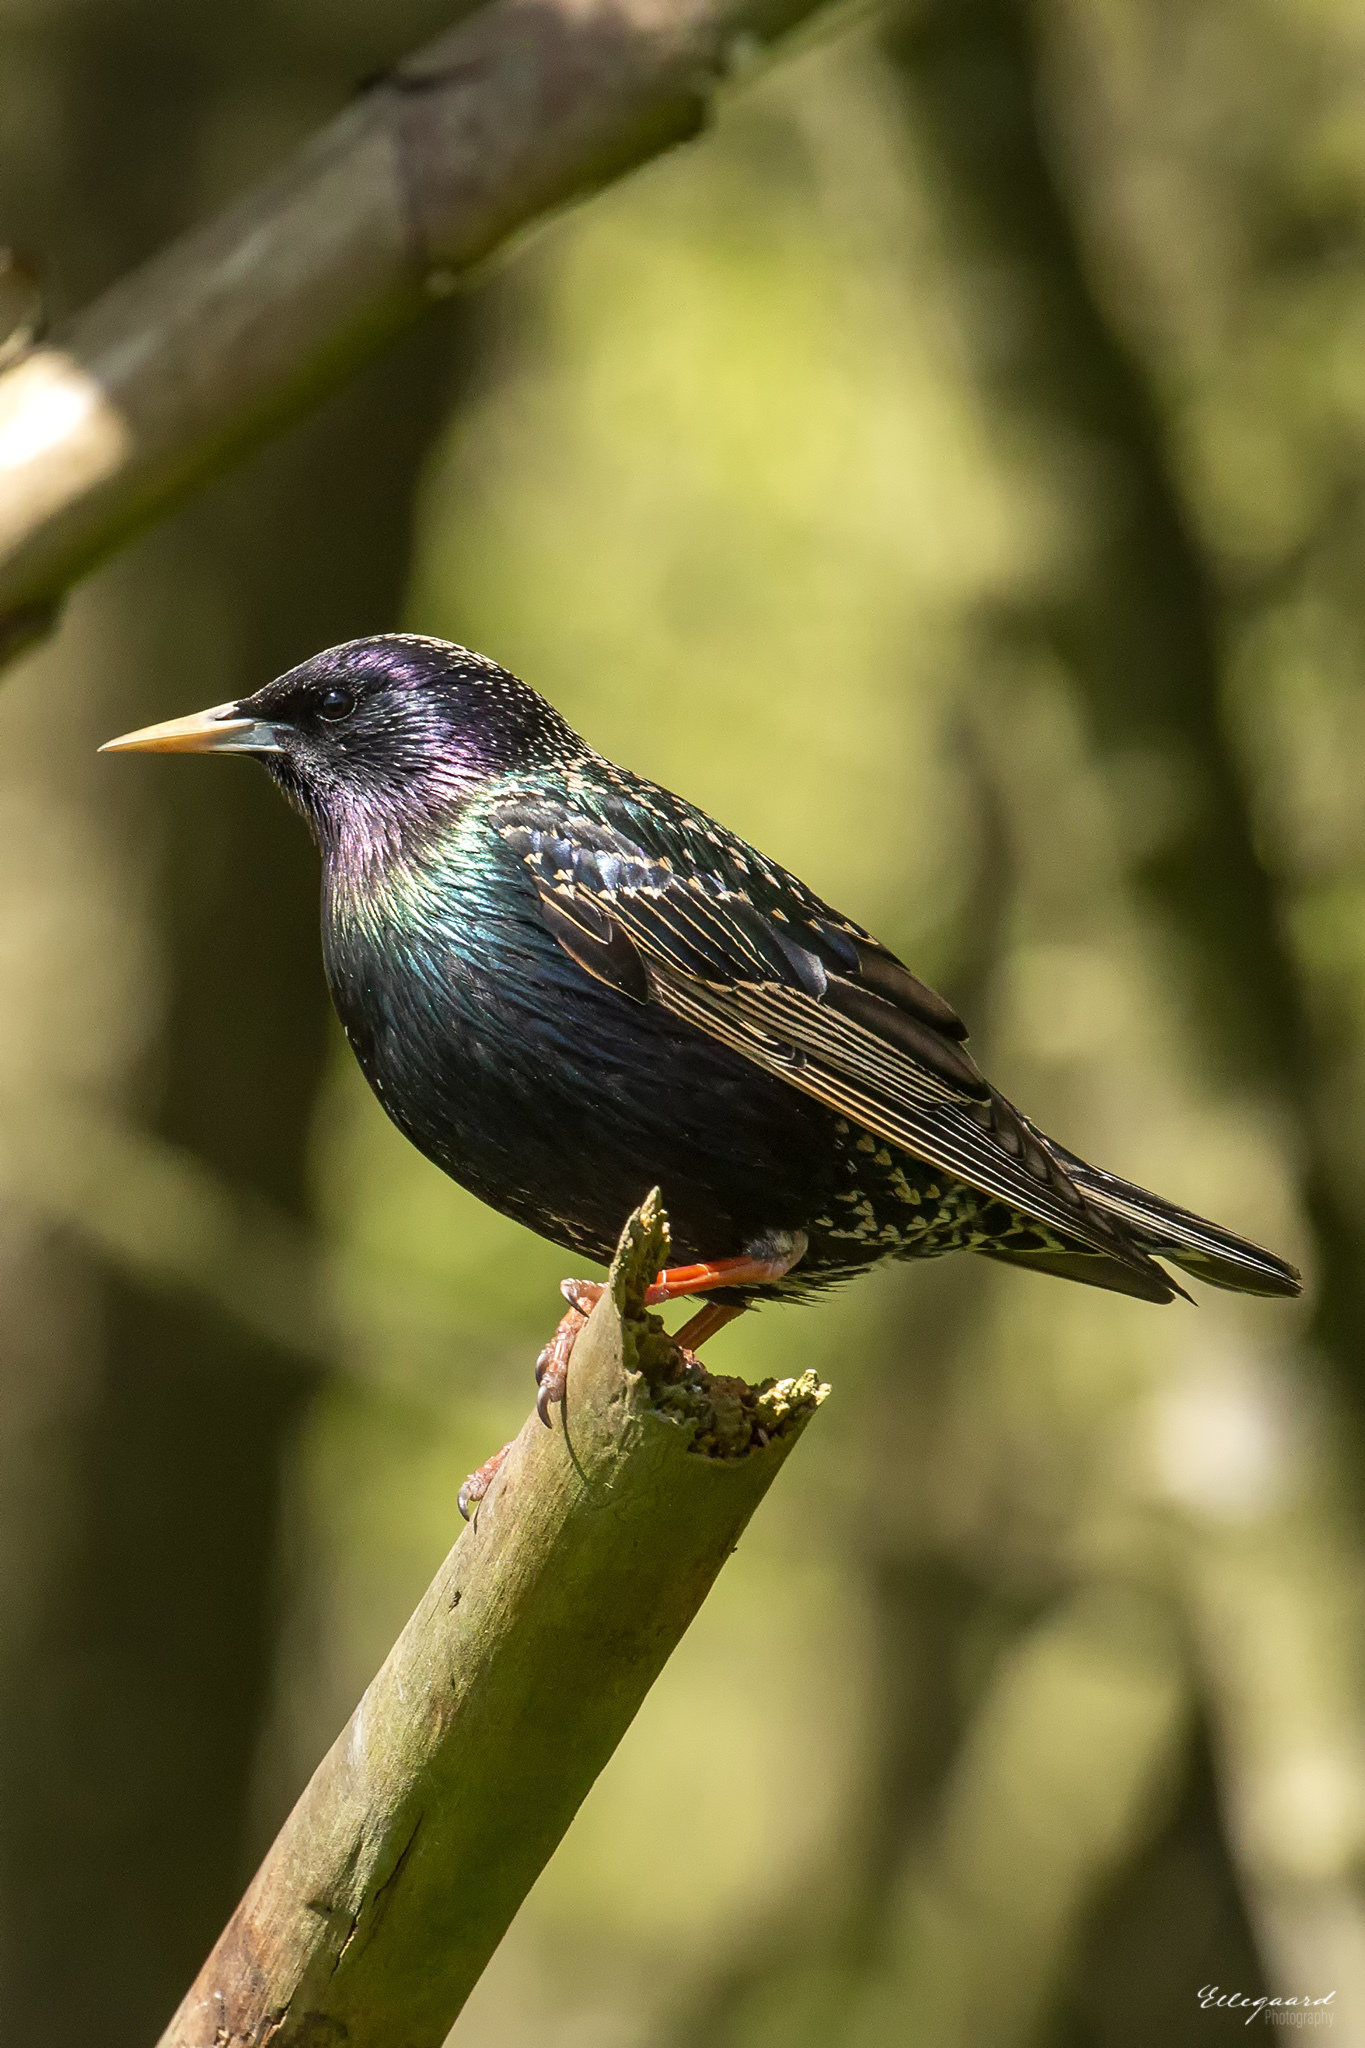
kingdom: Animalia
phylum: Chordata
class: Aves
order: Passeriformes
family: Sturnidae
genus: Sturnus
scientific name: Sturnus vulgaris
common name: Common starling
